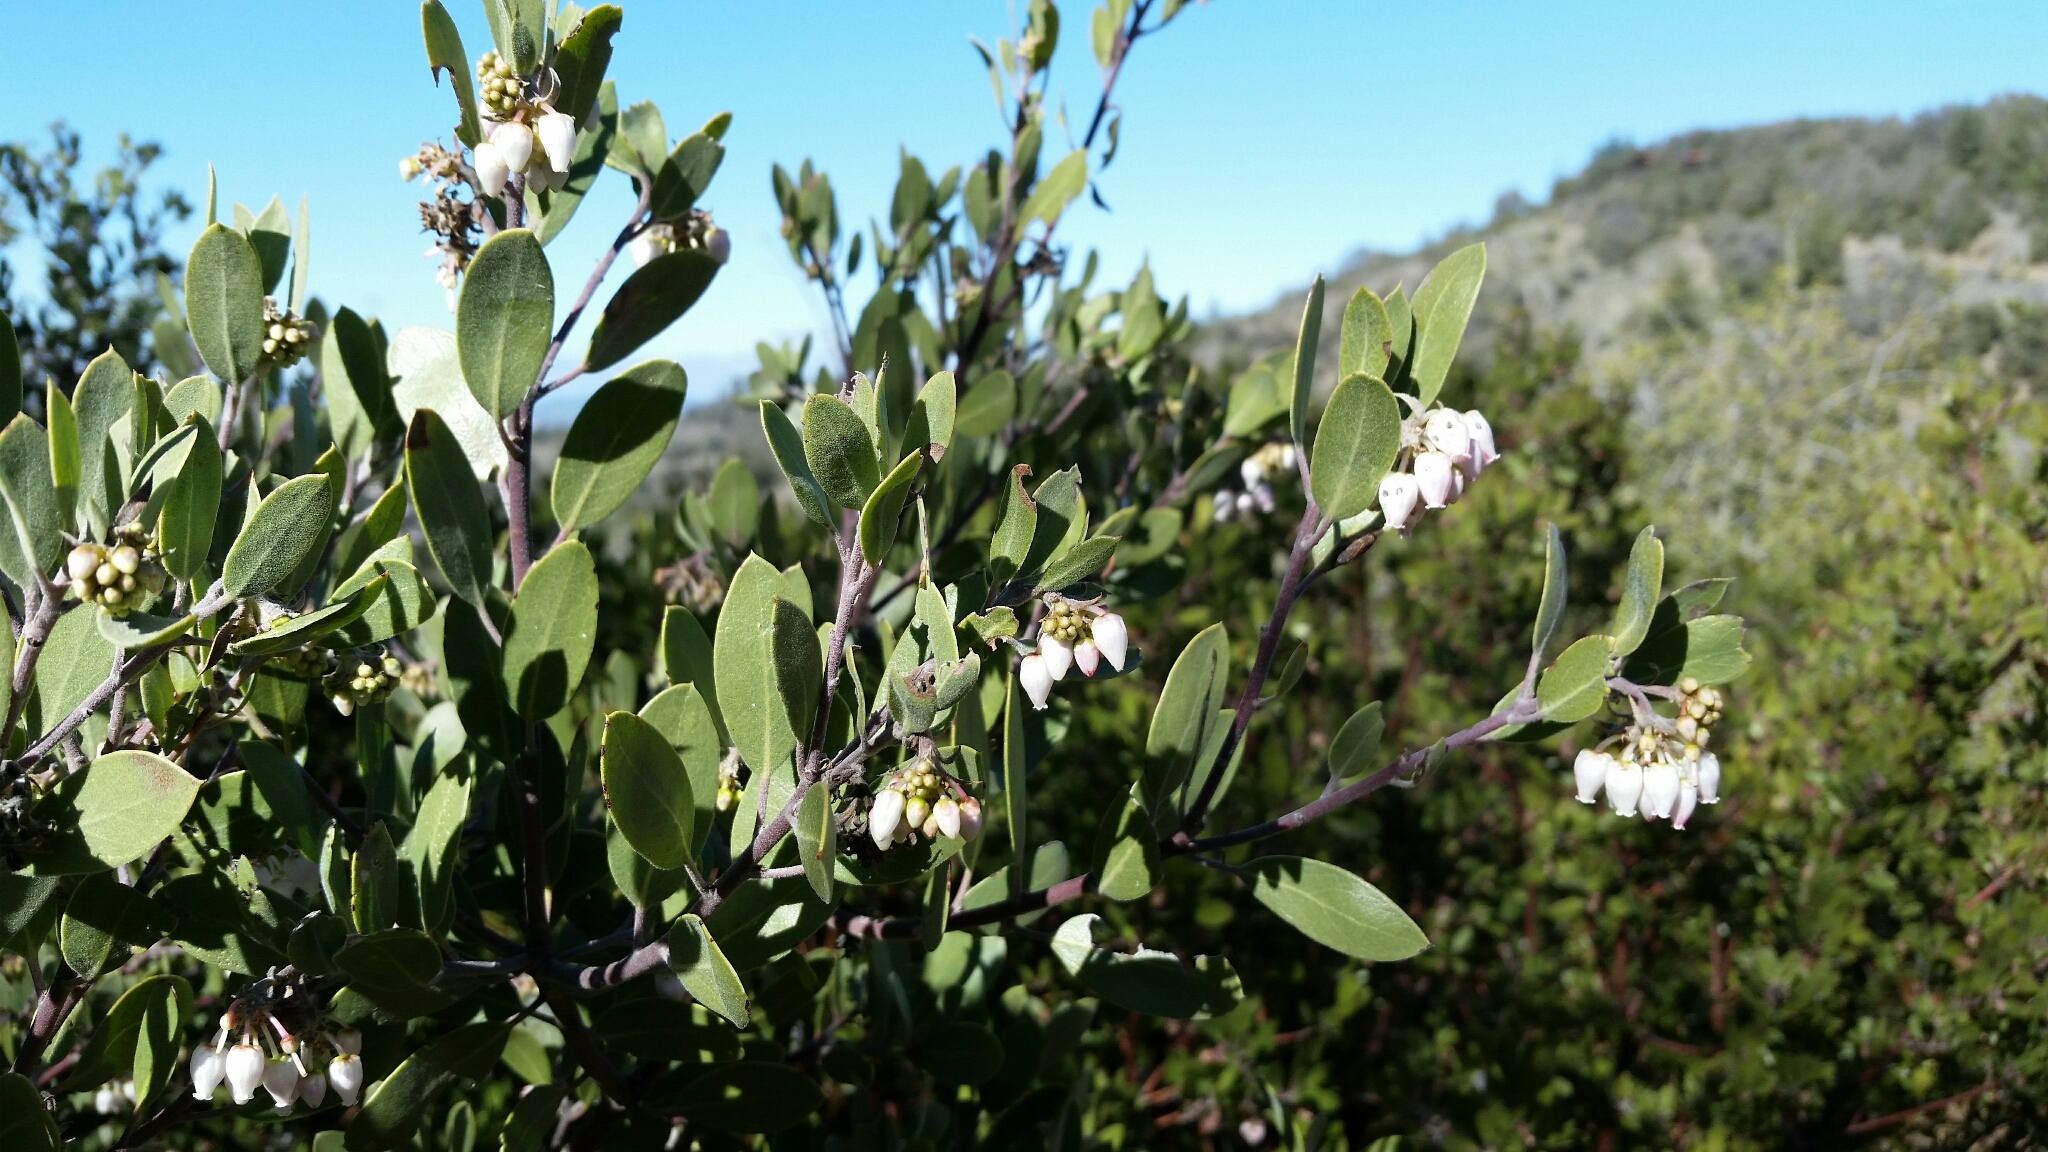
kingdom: Plantae
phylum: Tracheophyta
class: Magnoliopsida
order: Ericales
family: Ericaceae
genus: Arctostaphylos
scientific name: Arctostaphylos pungens
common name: Mexican manzanita
